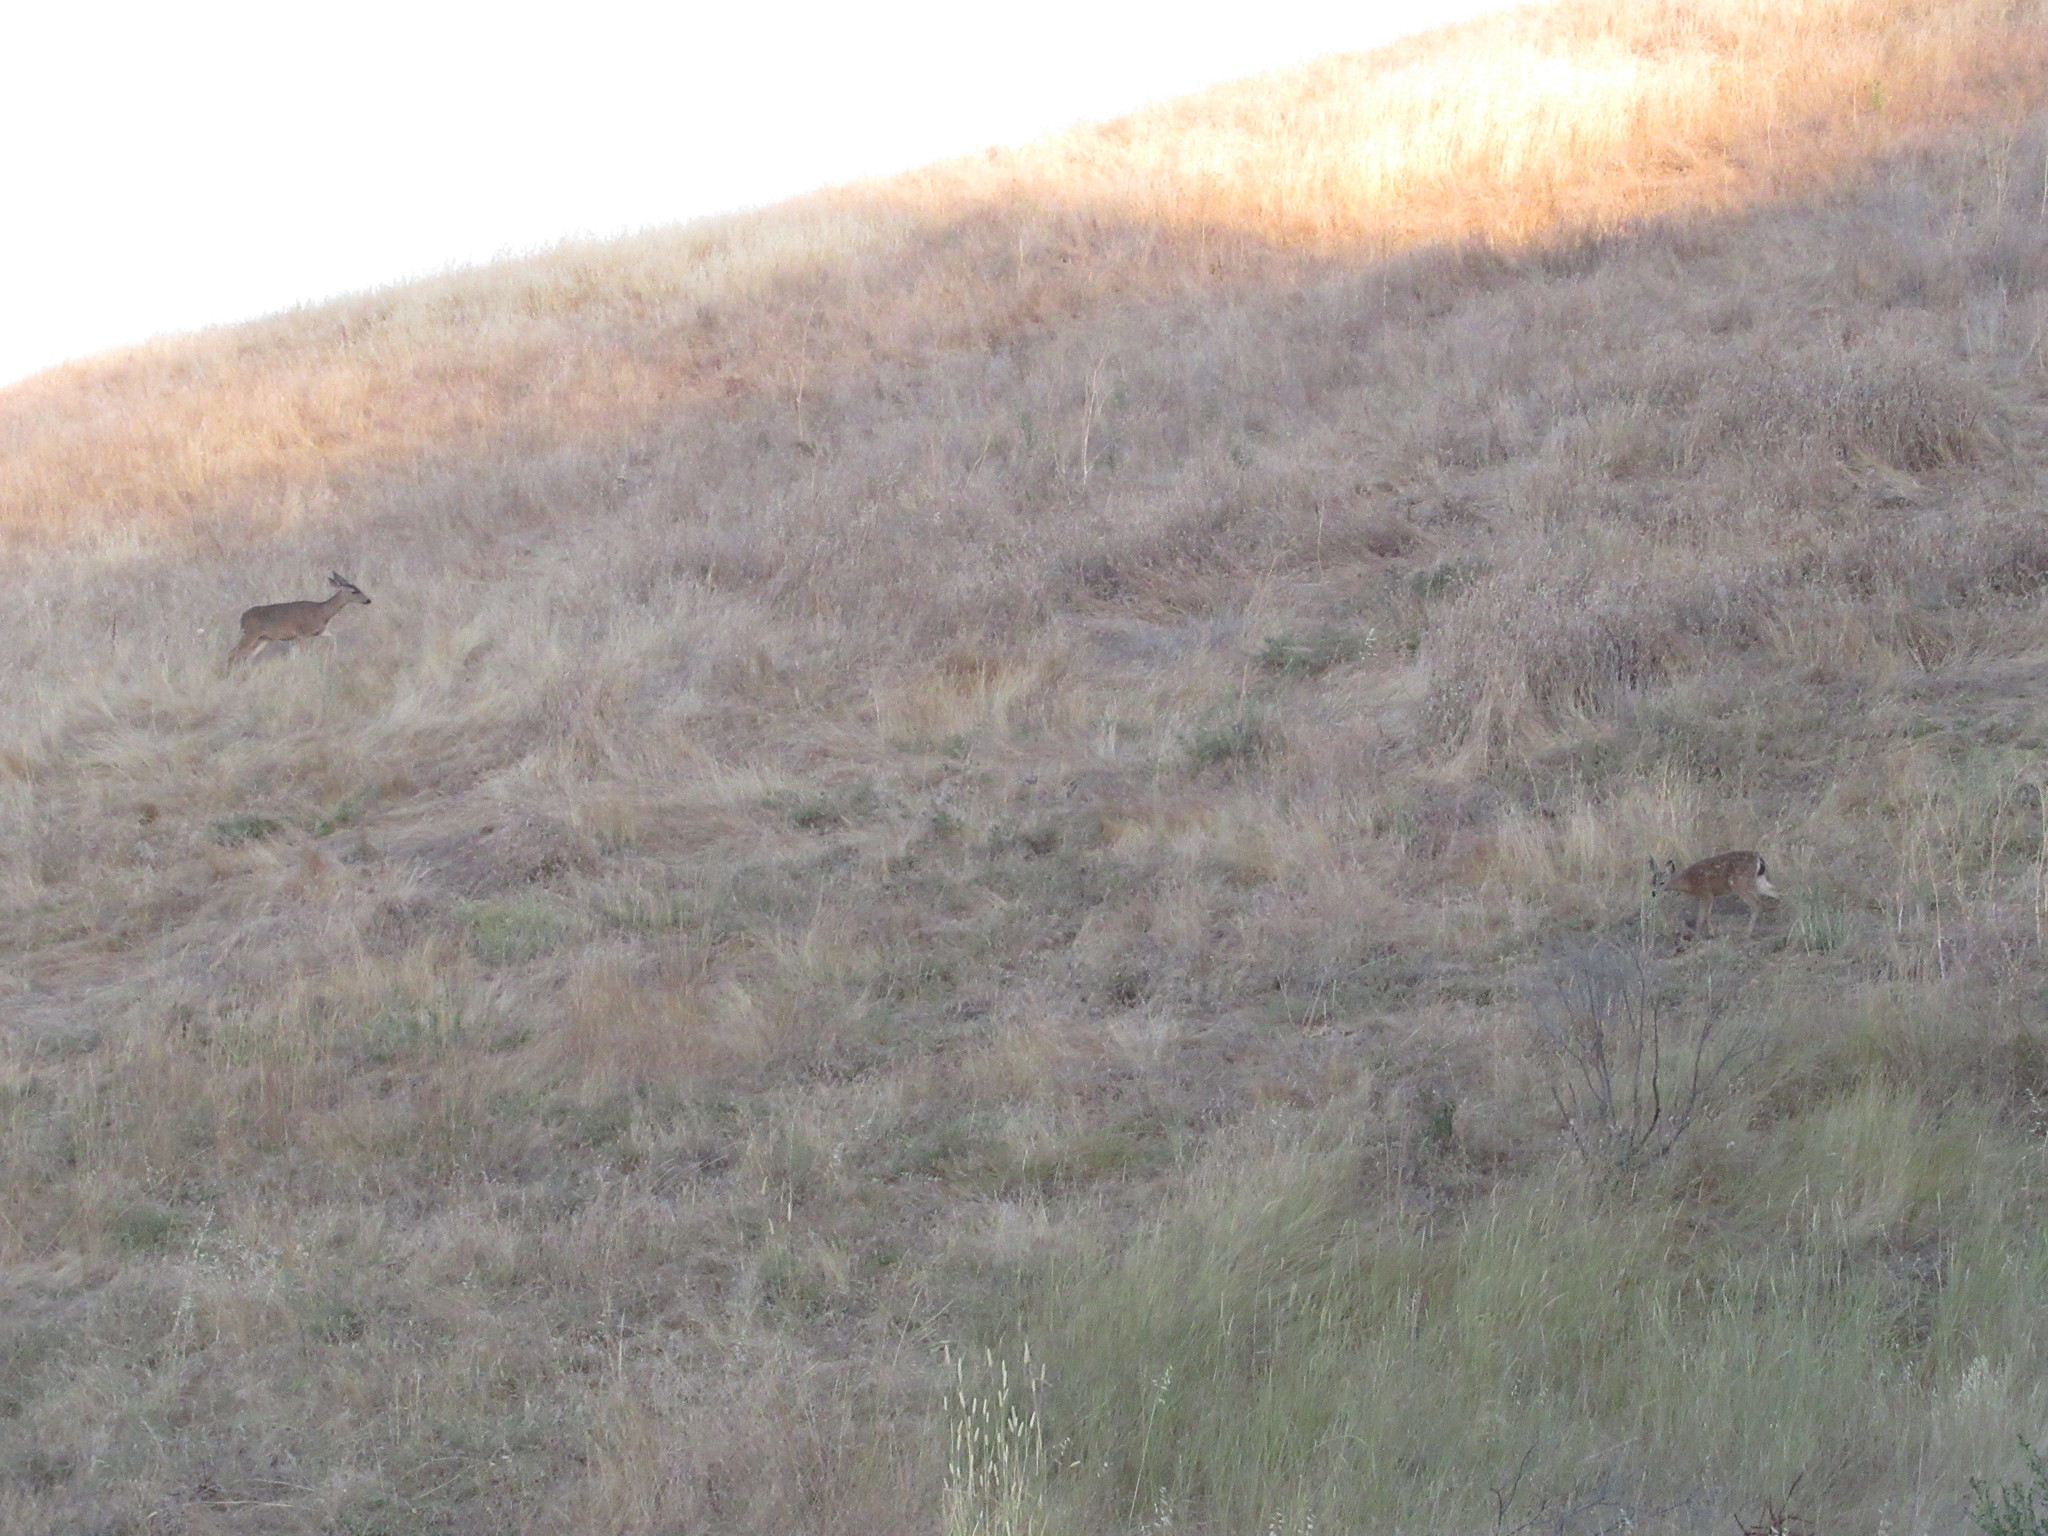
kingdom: Animalia
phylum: Chordata
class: Mammalia
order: Artiodactyla
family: Cervidae
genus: Odocoileus
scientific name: Odocoileus hemionus
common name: Mule deer
